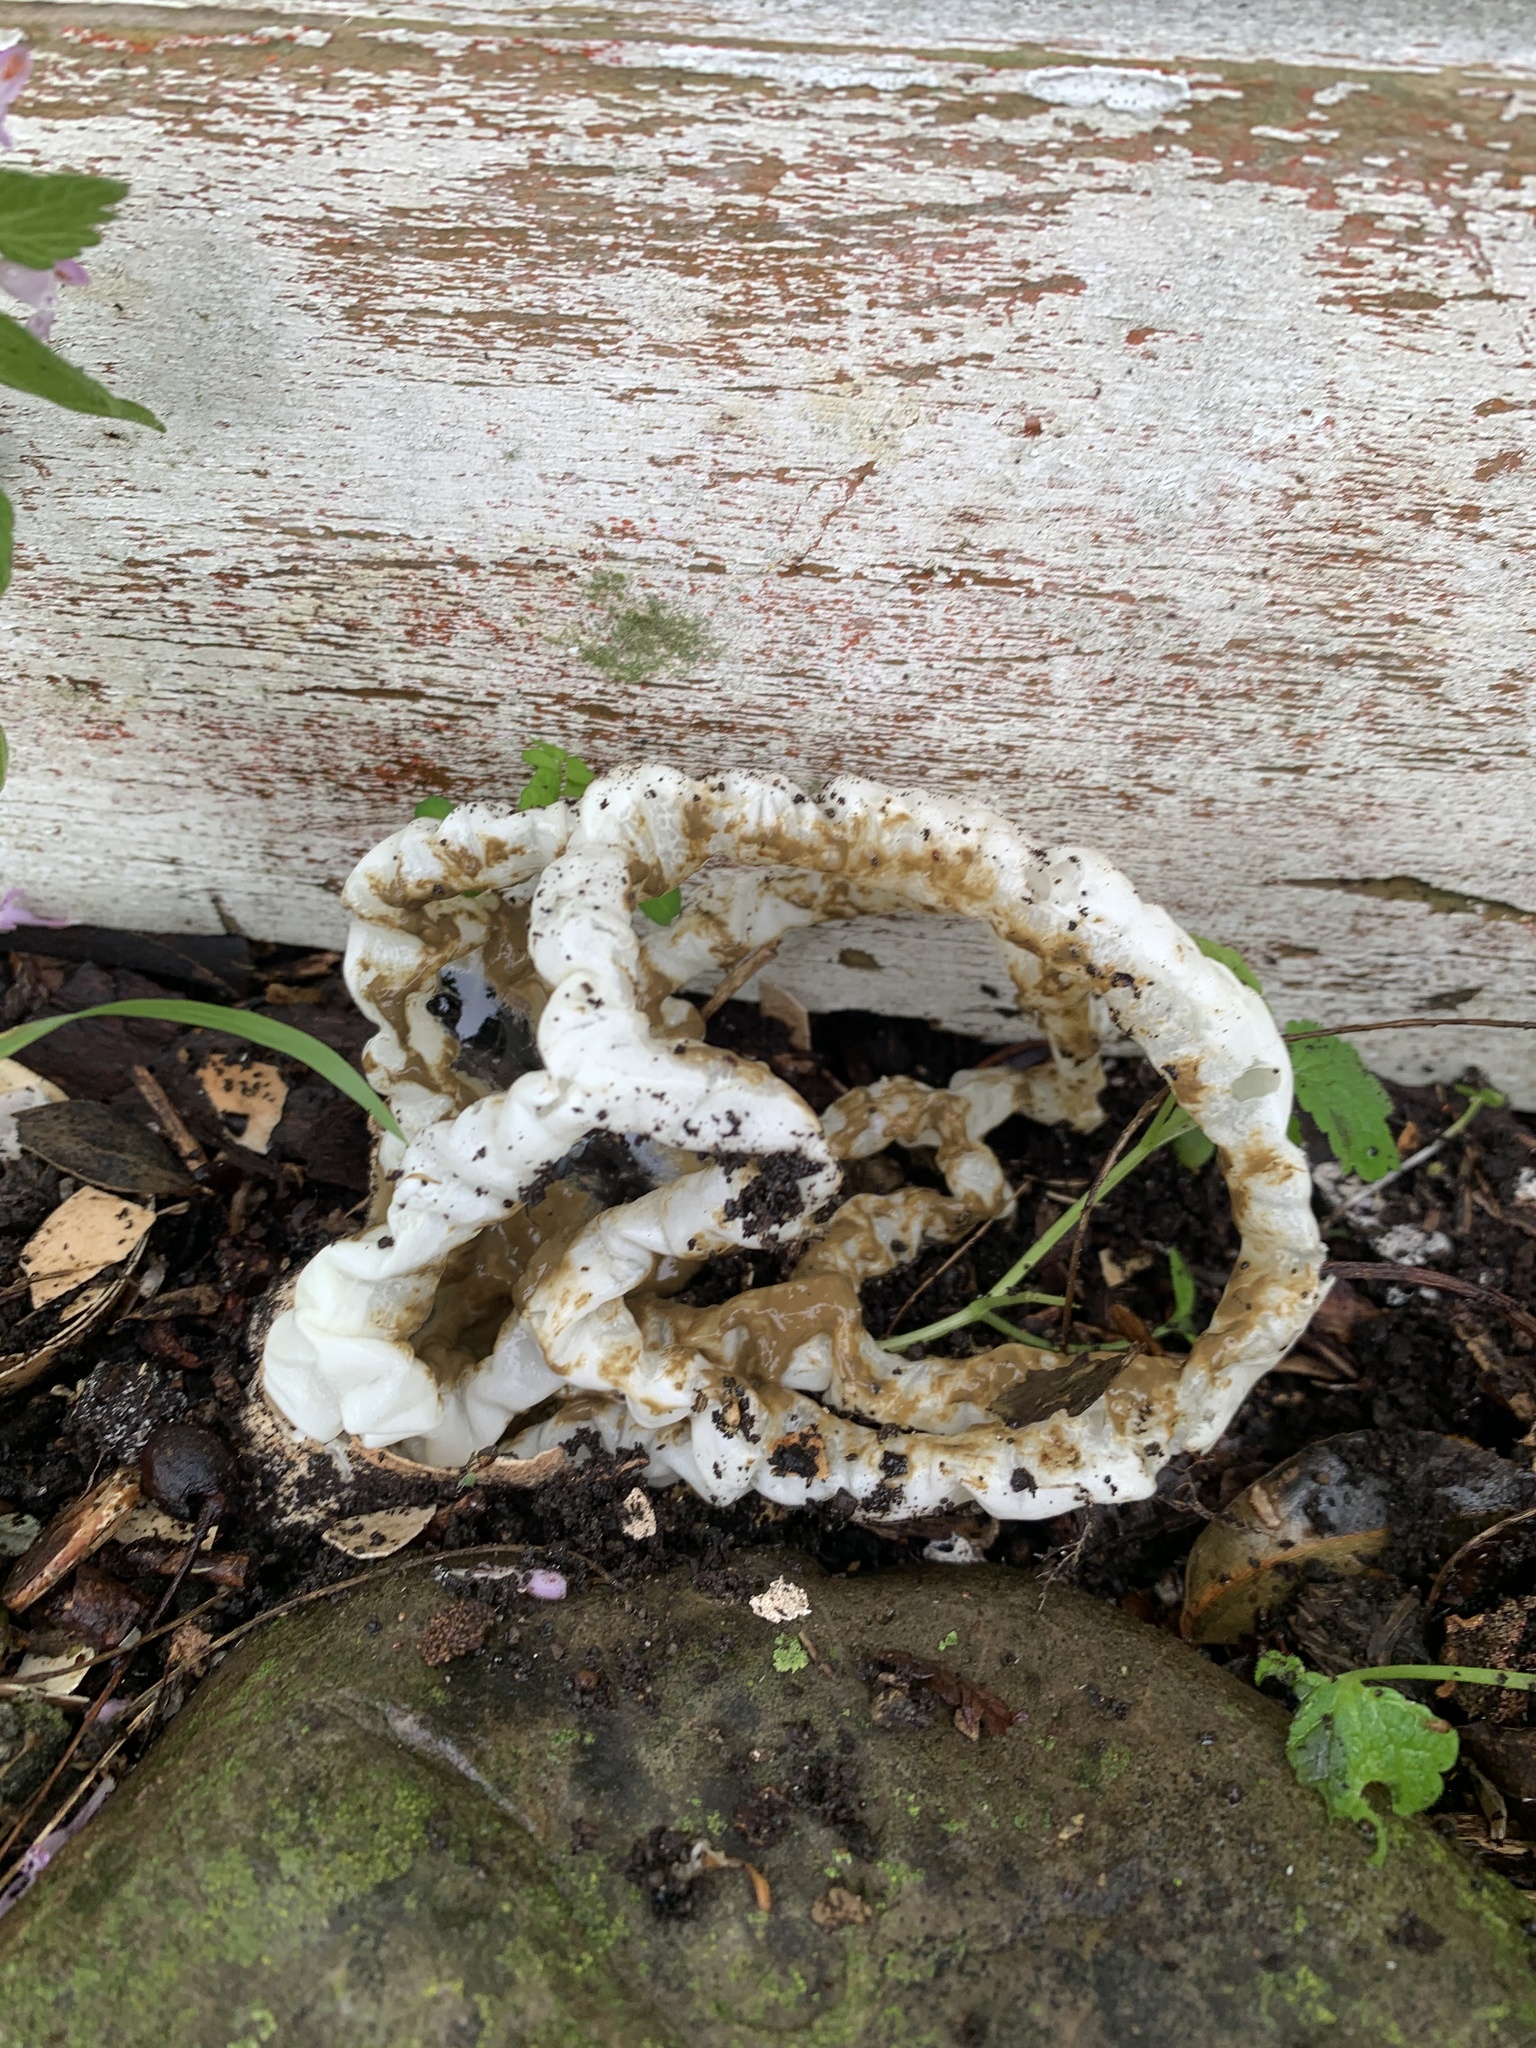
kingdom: Fungi
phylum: Basidiomycota
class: Agaricomycetes
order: Phallales
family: Phallaceae
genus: Ileodictyon
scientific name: Ileodictyon cibarium
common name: Basket fungus
